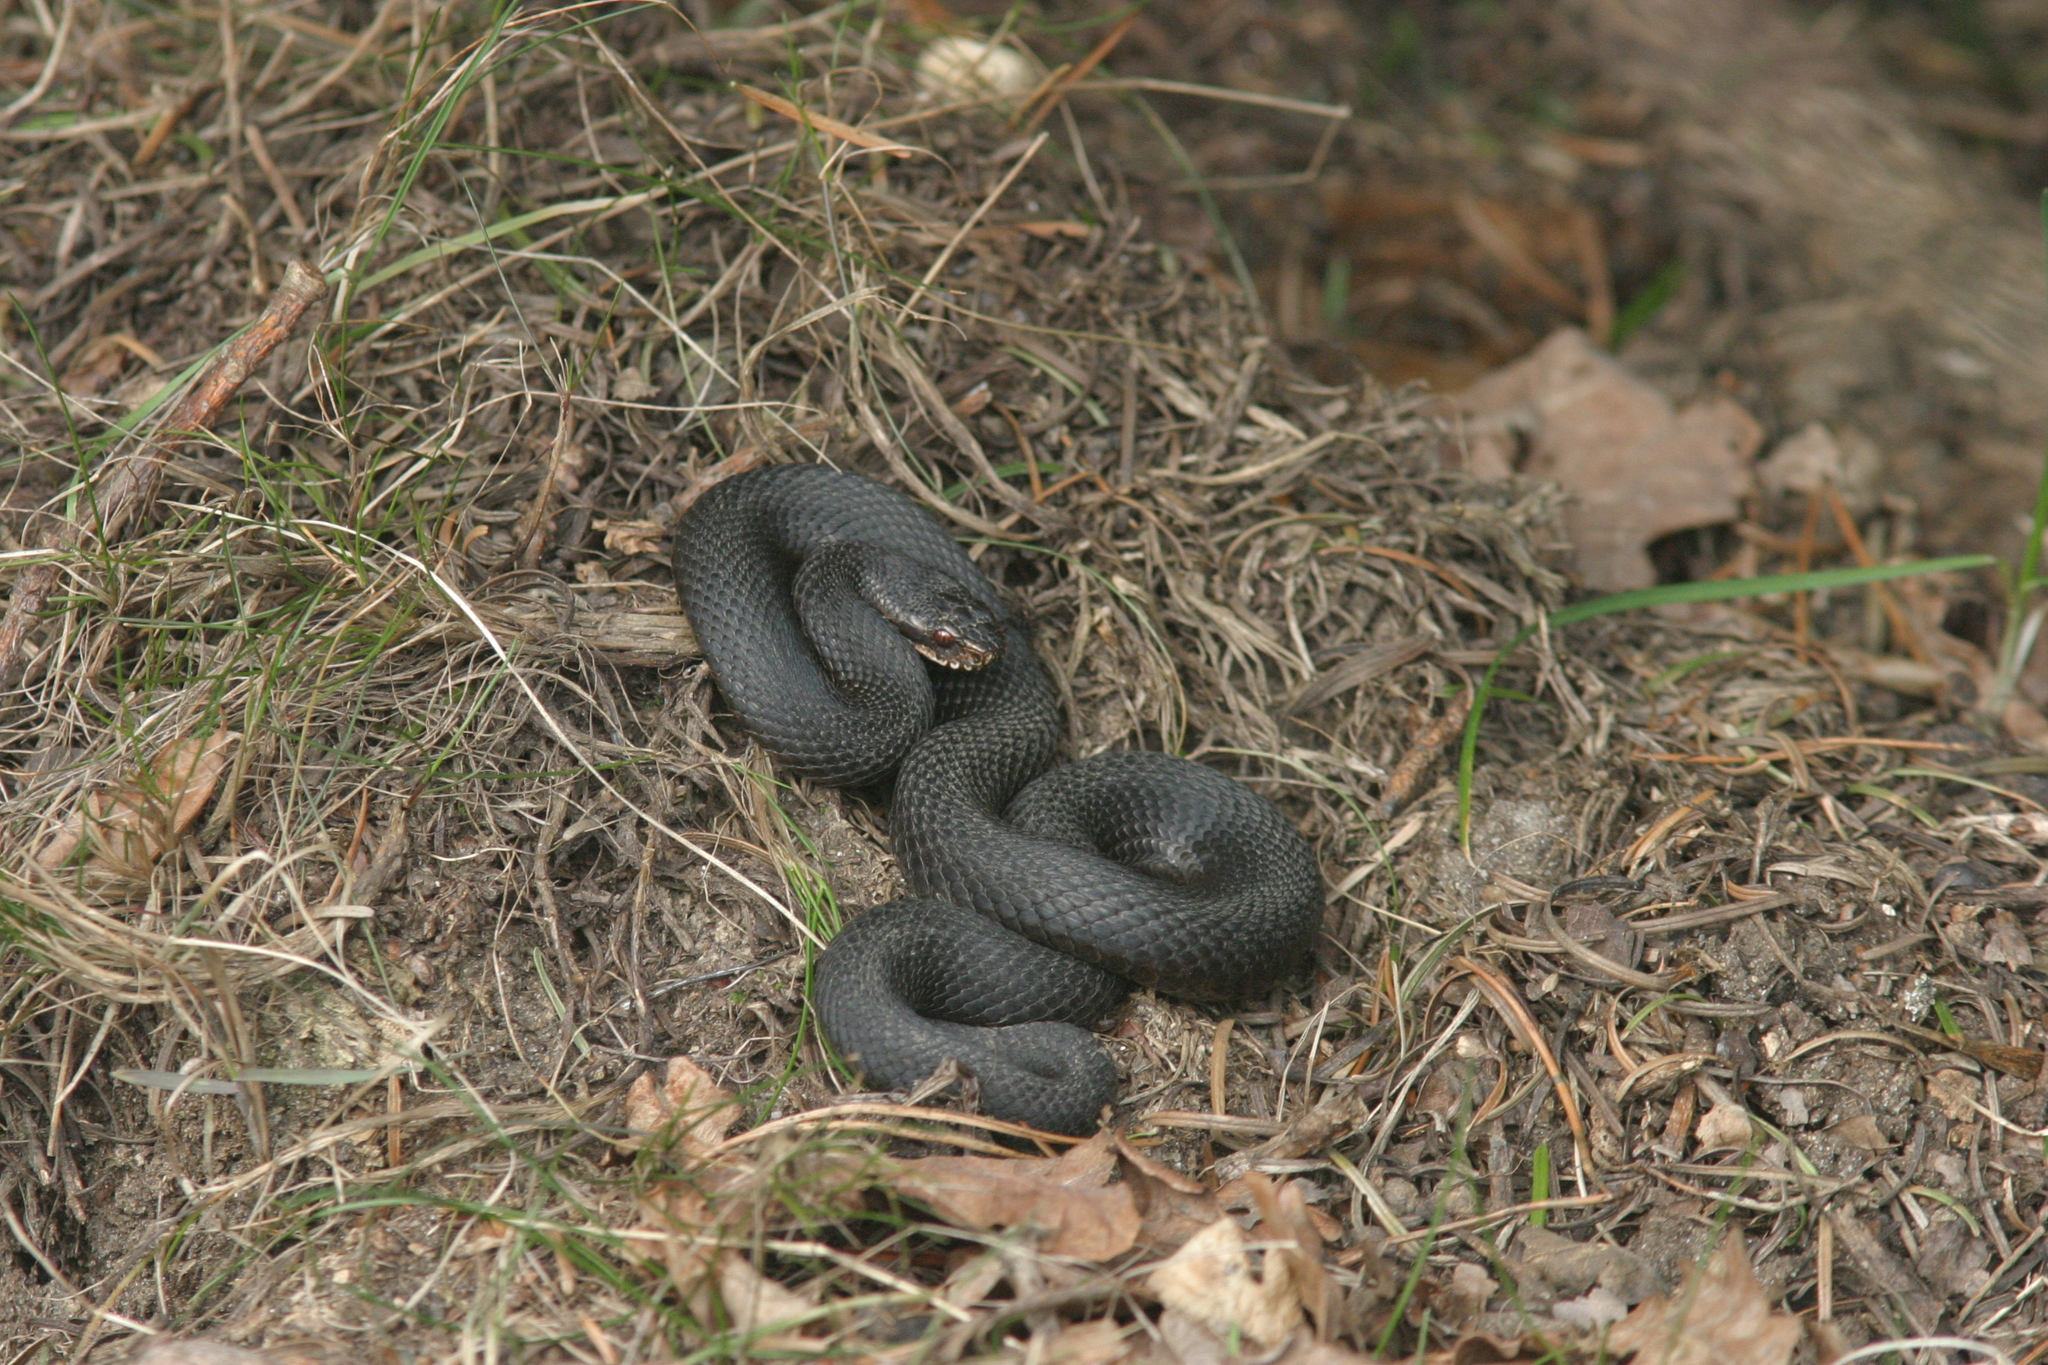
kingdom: Animalia
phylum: Chordata
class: Squamata
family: Viperidae
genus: Vipera
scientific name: Vipera berus
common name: Adder
